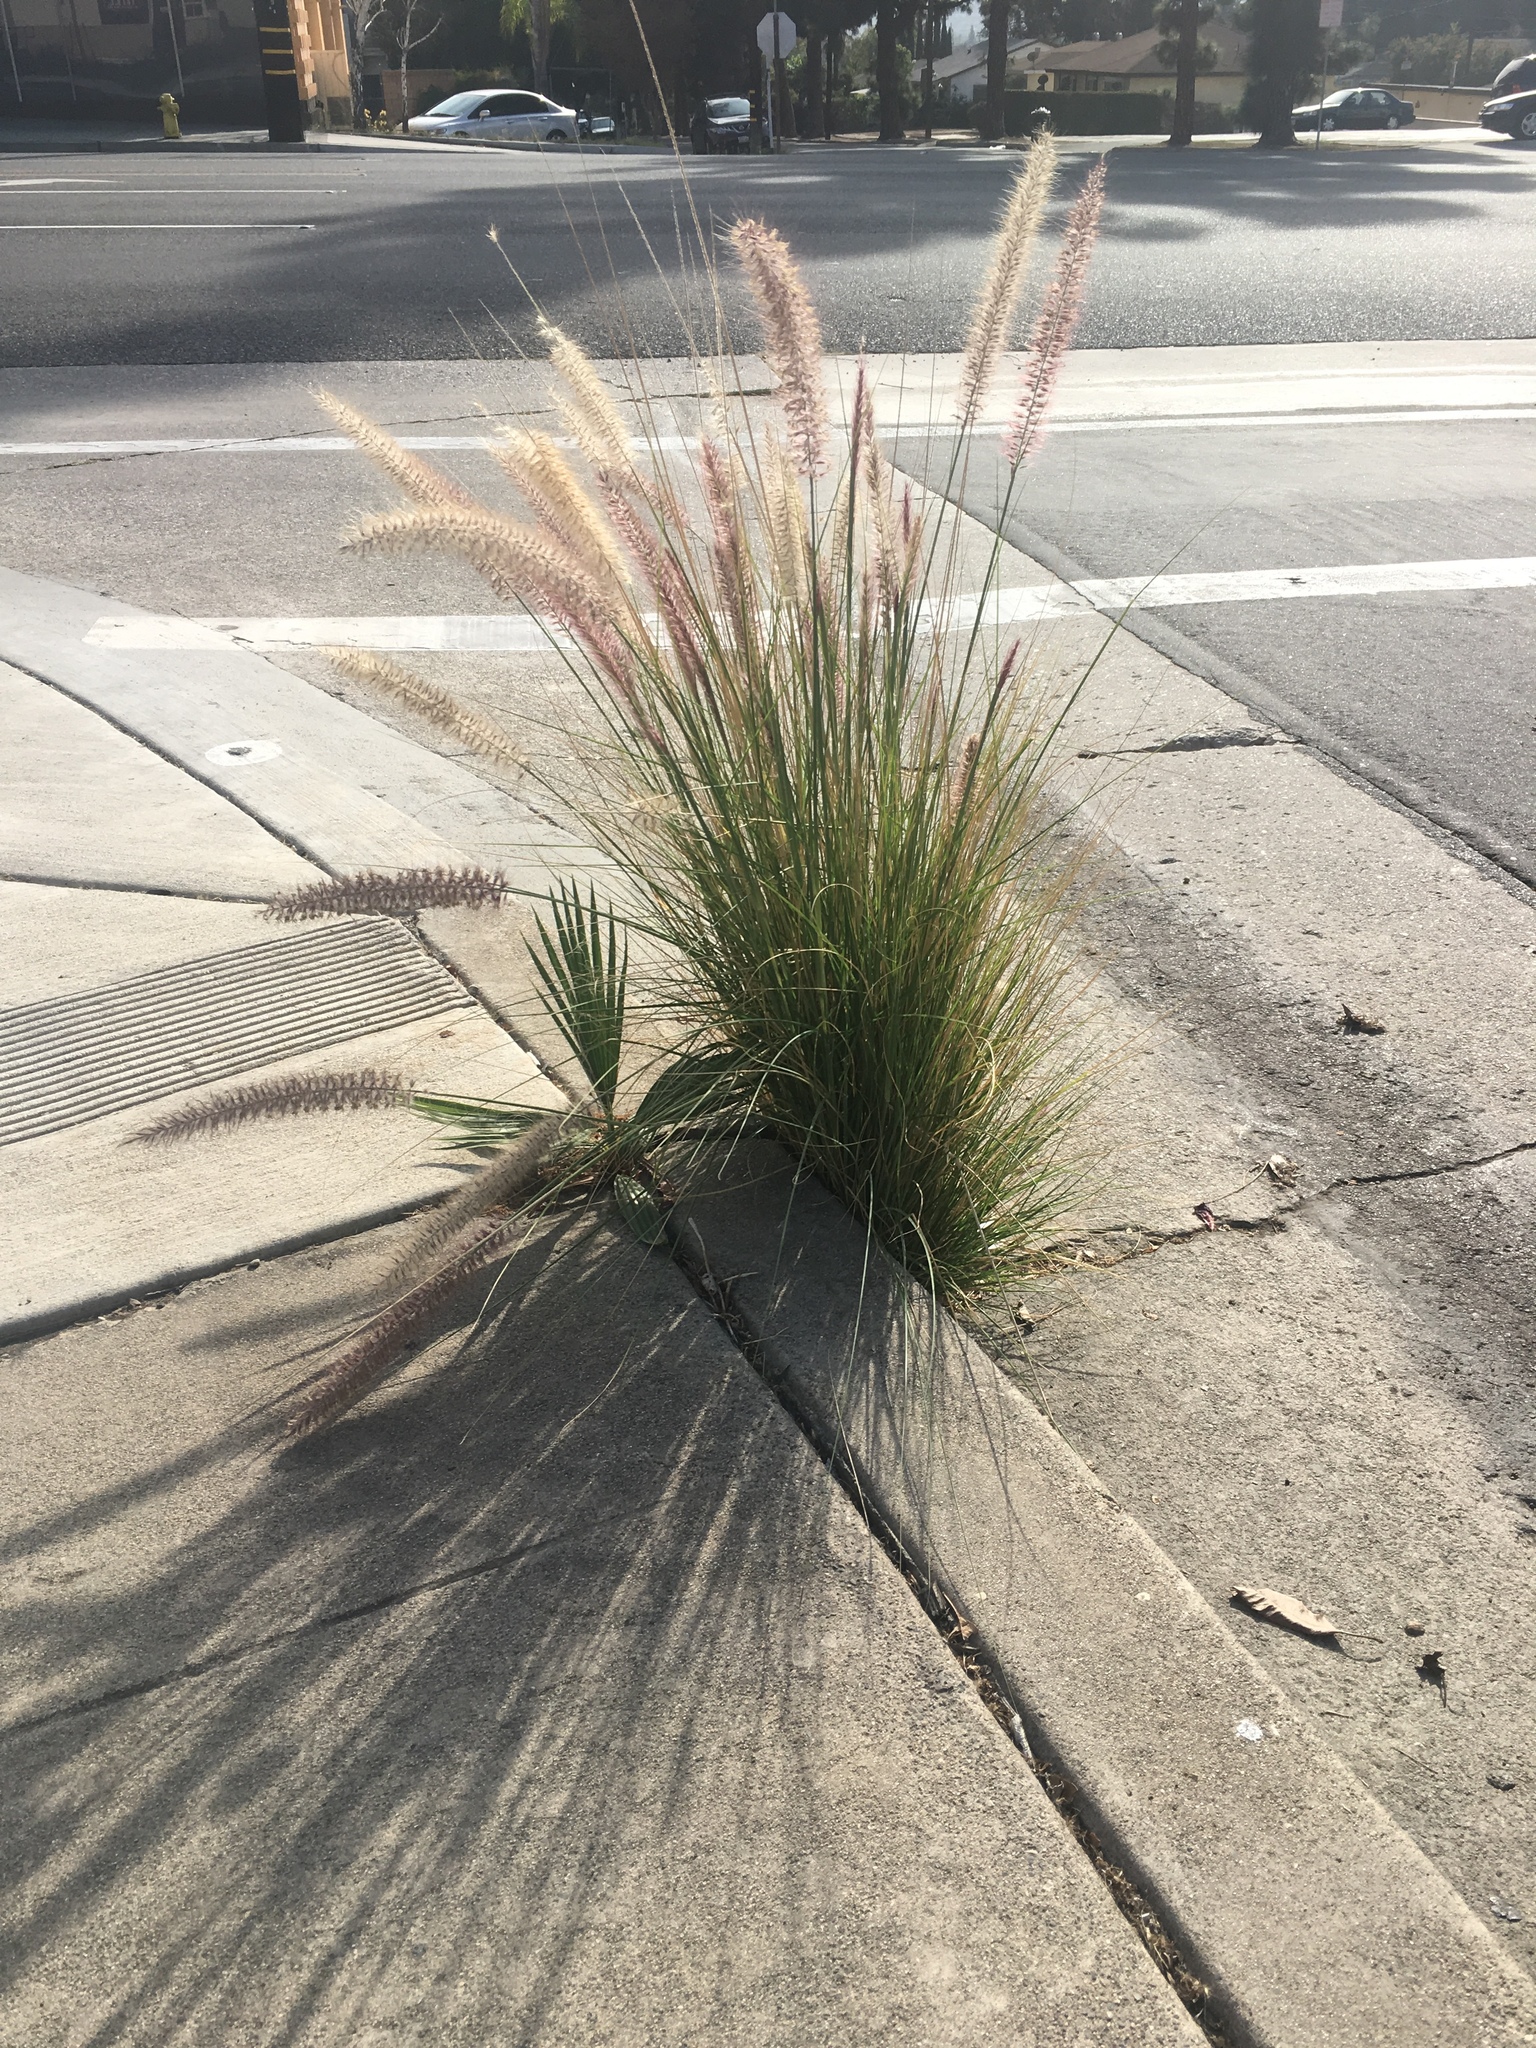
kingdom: Plantae
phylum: Tracheophyta
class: Liliopsida
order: Poales
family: Poaceae
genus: Cenchrus
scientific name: Cenchrus setaceus
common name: Crimson fountaingrass
